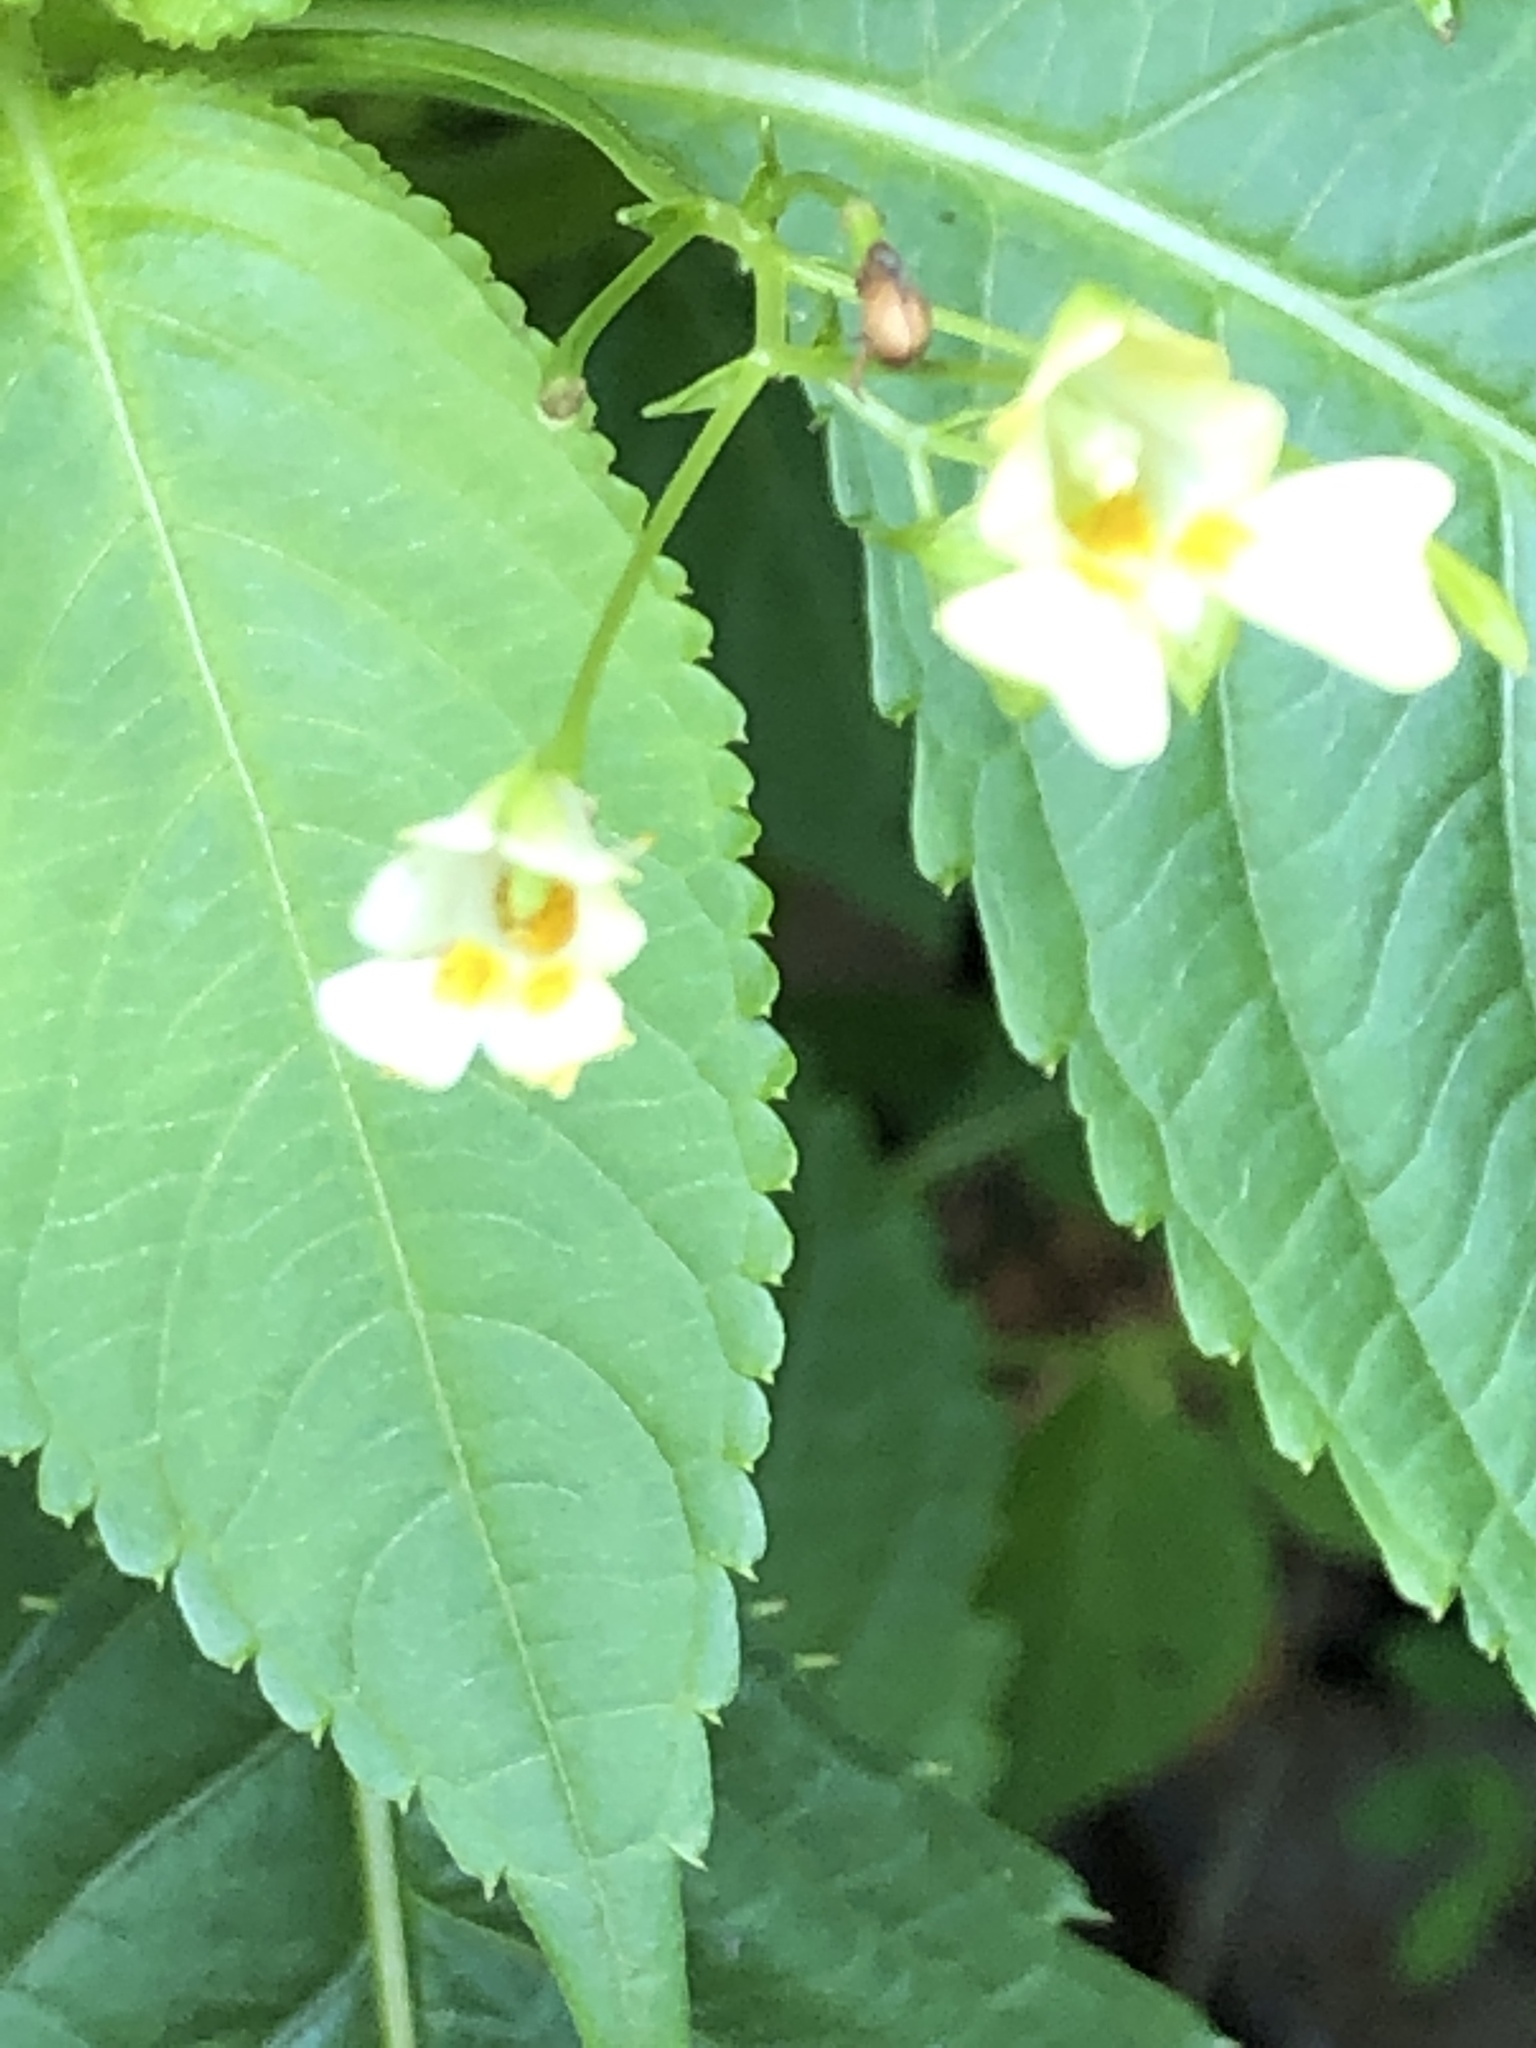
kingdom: Plantae
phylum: Tracheophyta
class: Magnoliopsida
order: Ericales
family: Balsaminaceae
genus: Impatiens
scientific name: Impatiens parviflora
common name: Small balsam
